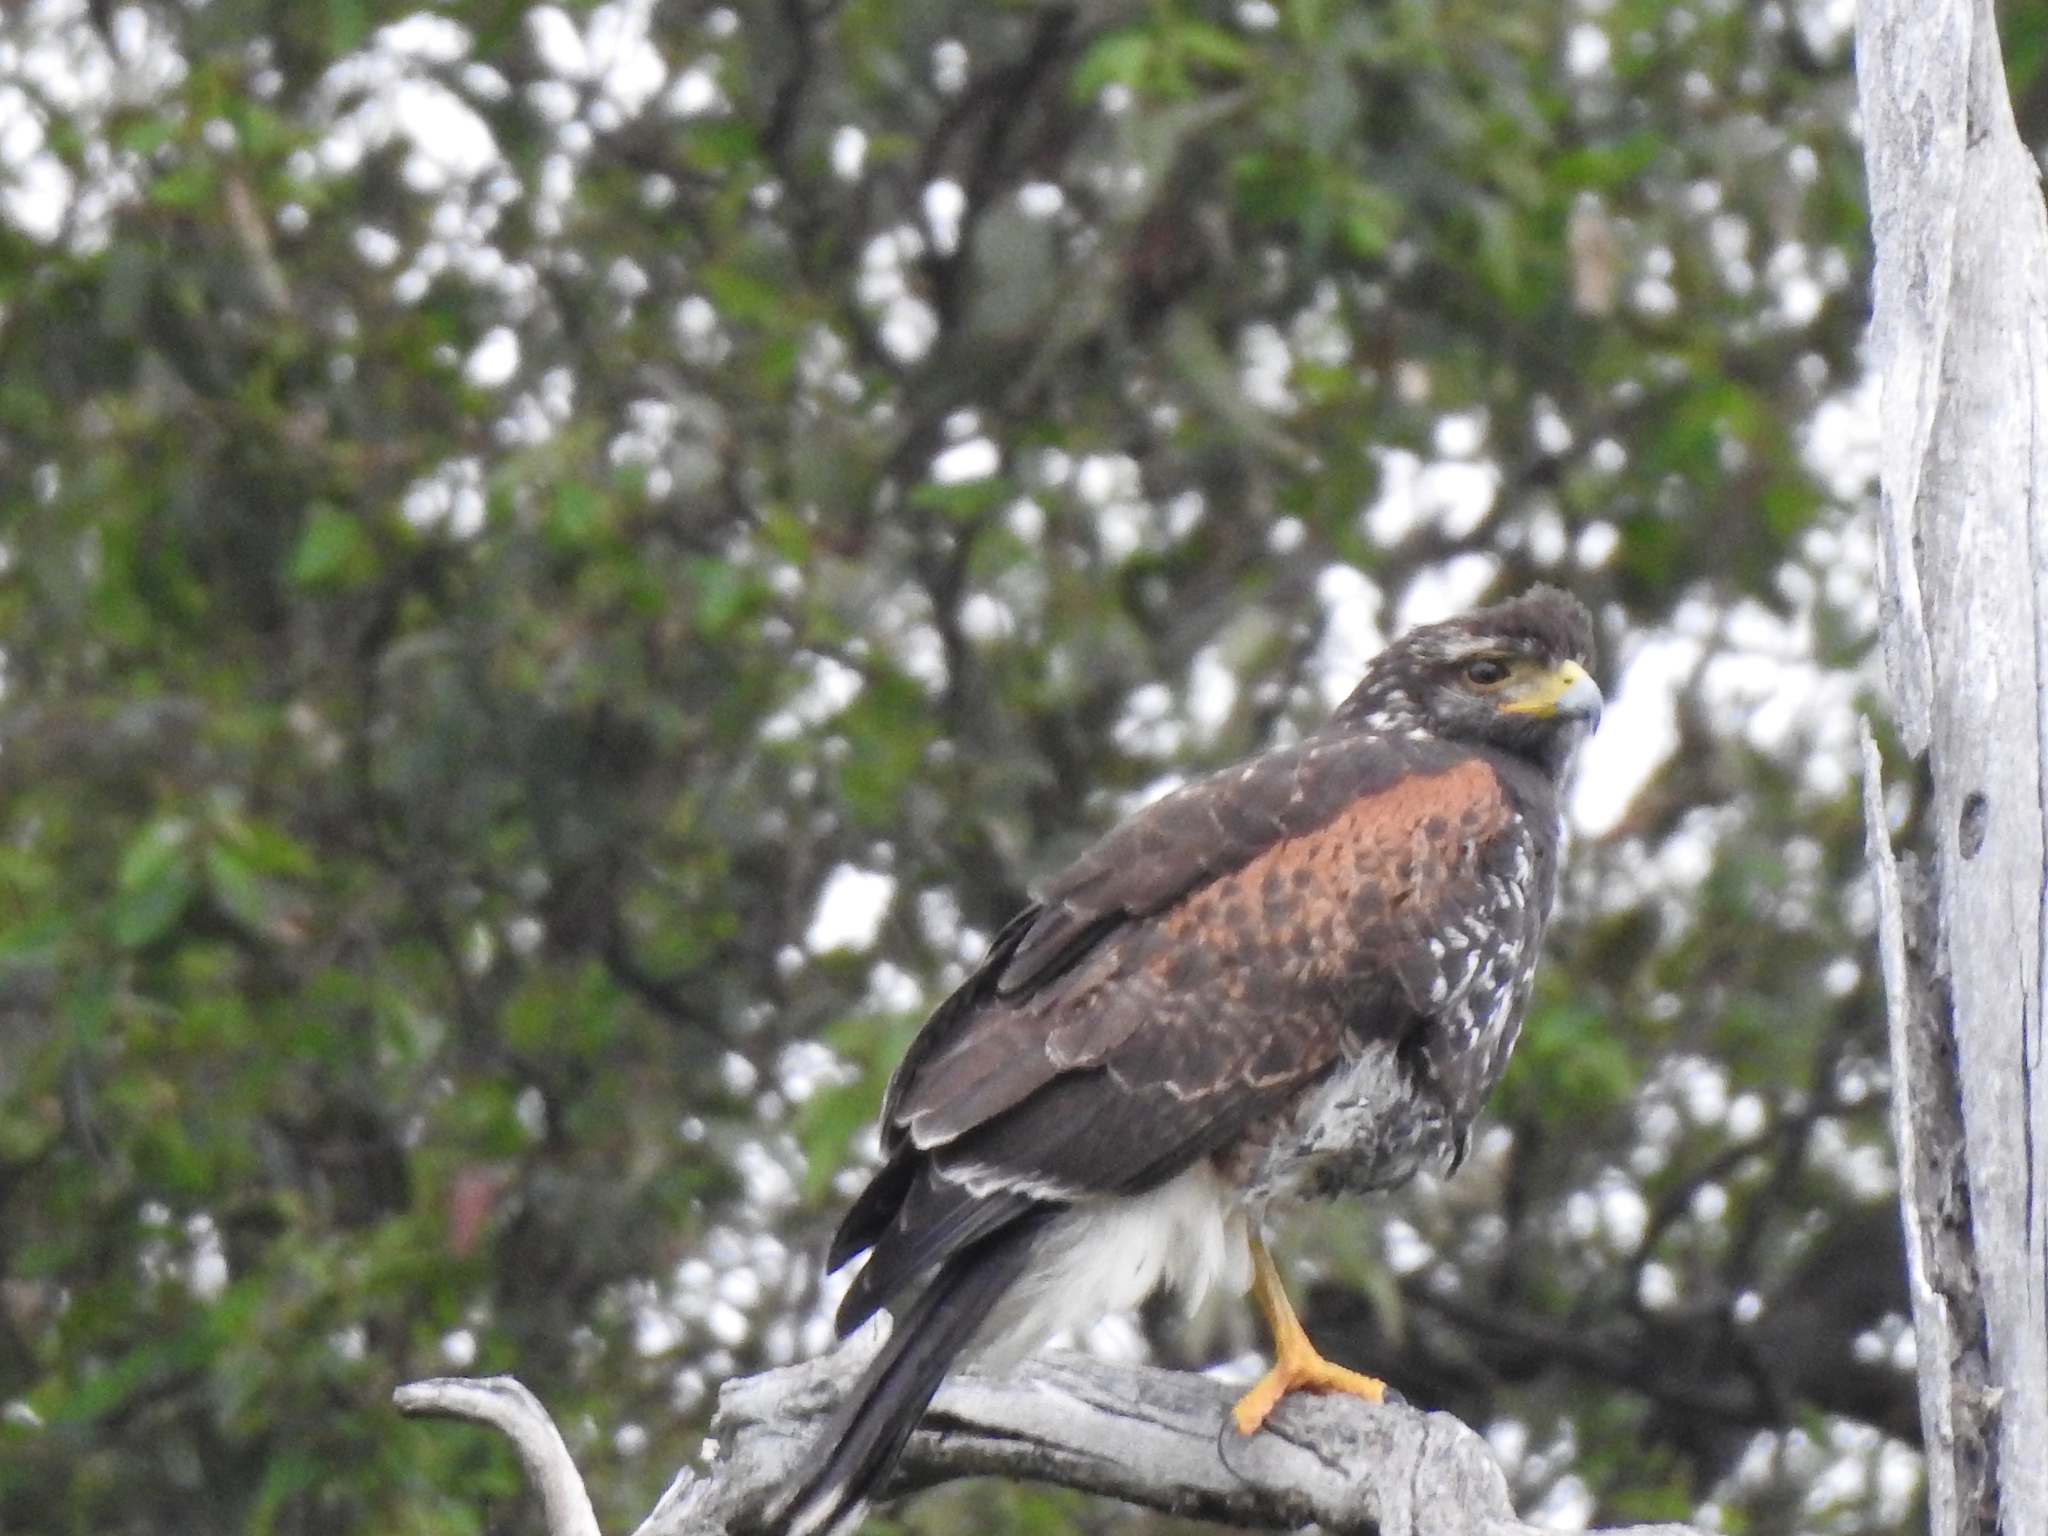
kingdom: Animalia
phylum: Chordata
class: Aves
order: Accipitriformes
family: Accipitridae
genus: Parabuteo
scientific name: Parabuteo unicinctus
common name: Harris's hawk
